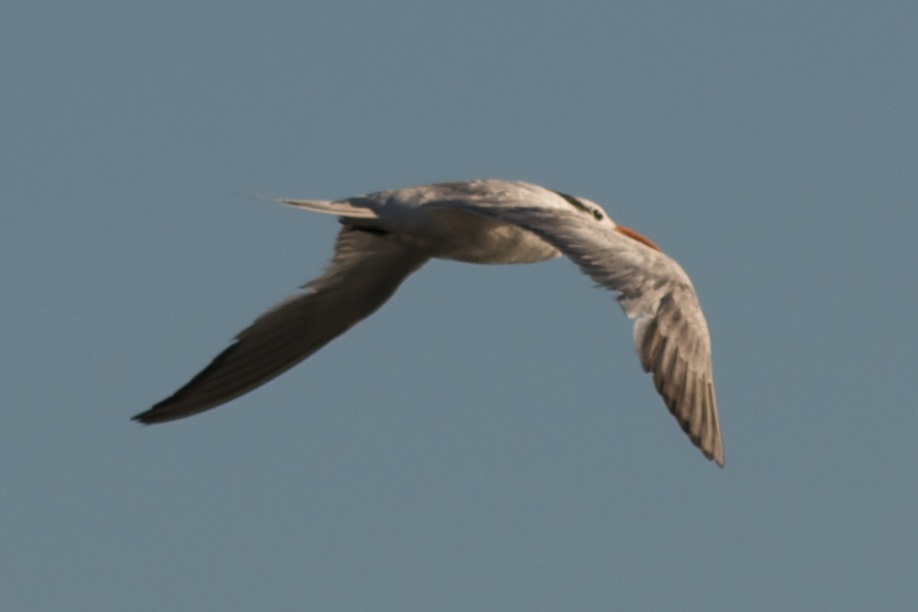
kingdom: Animalia
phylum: Chordata
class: Aves
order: Charadriiformes
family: Laridae
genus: Thalasseus
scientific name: Thalasseus maximus
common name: Royal tern
